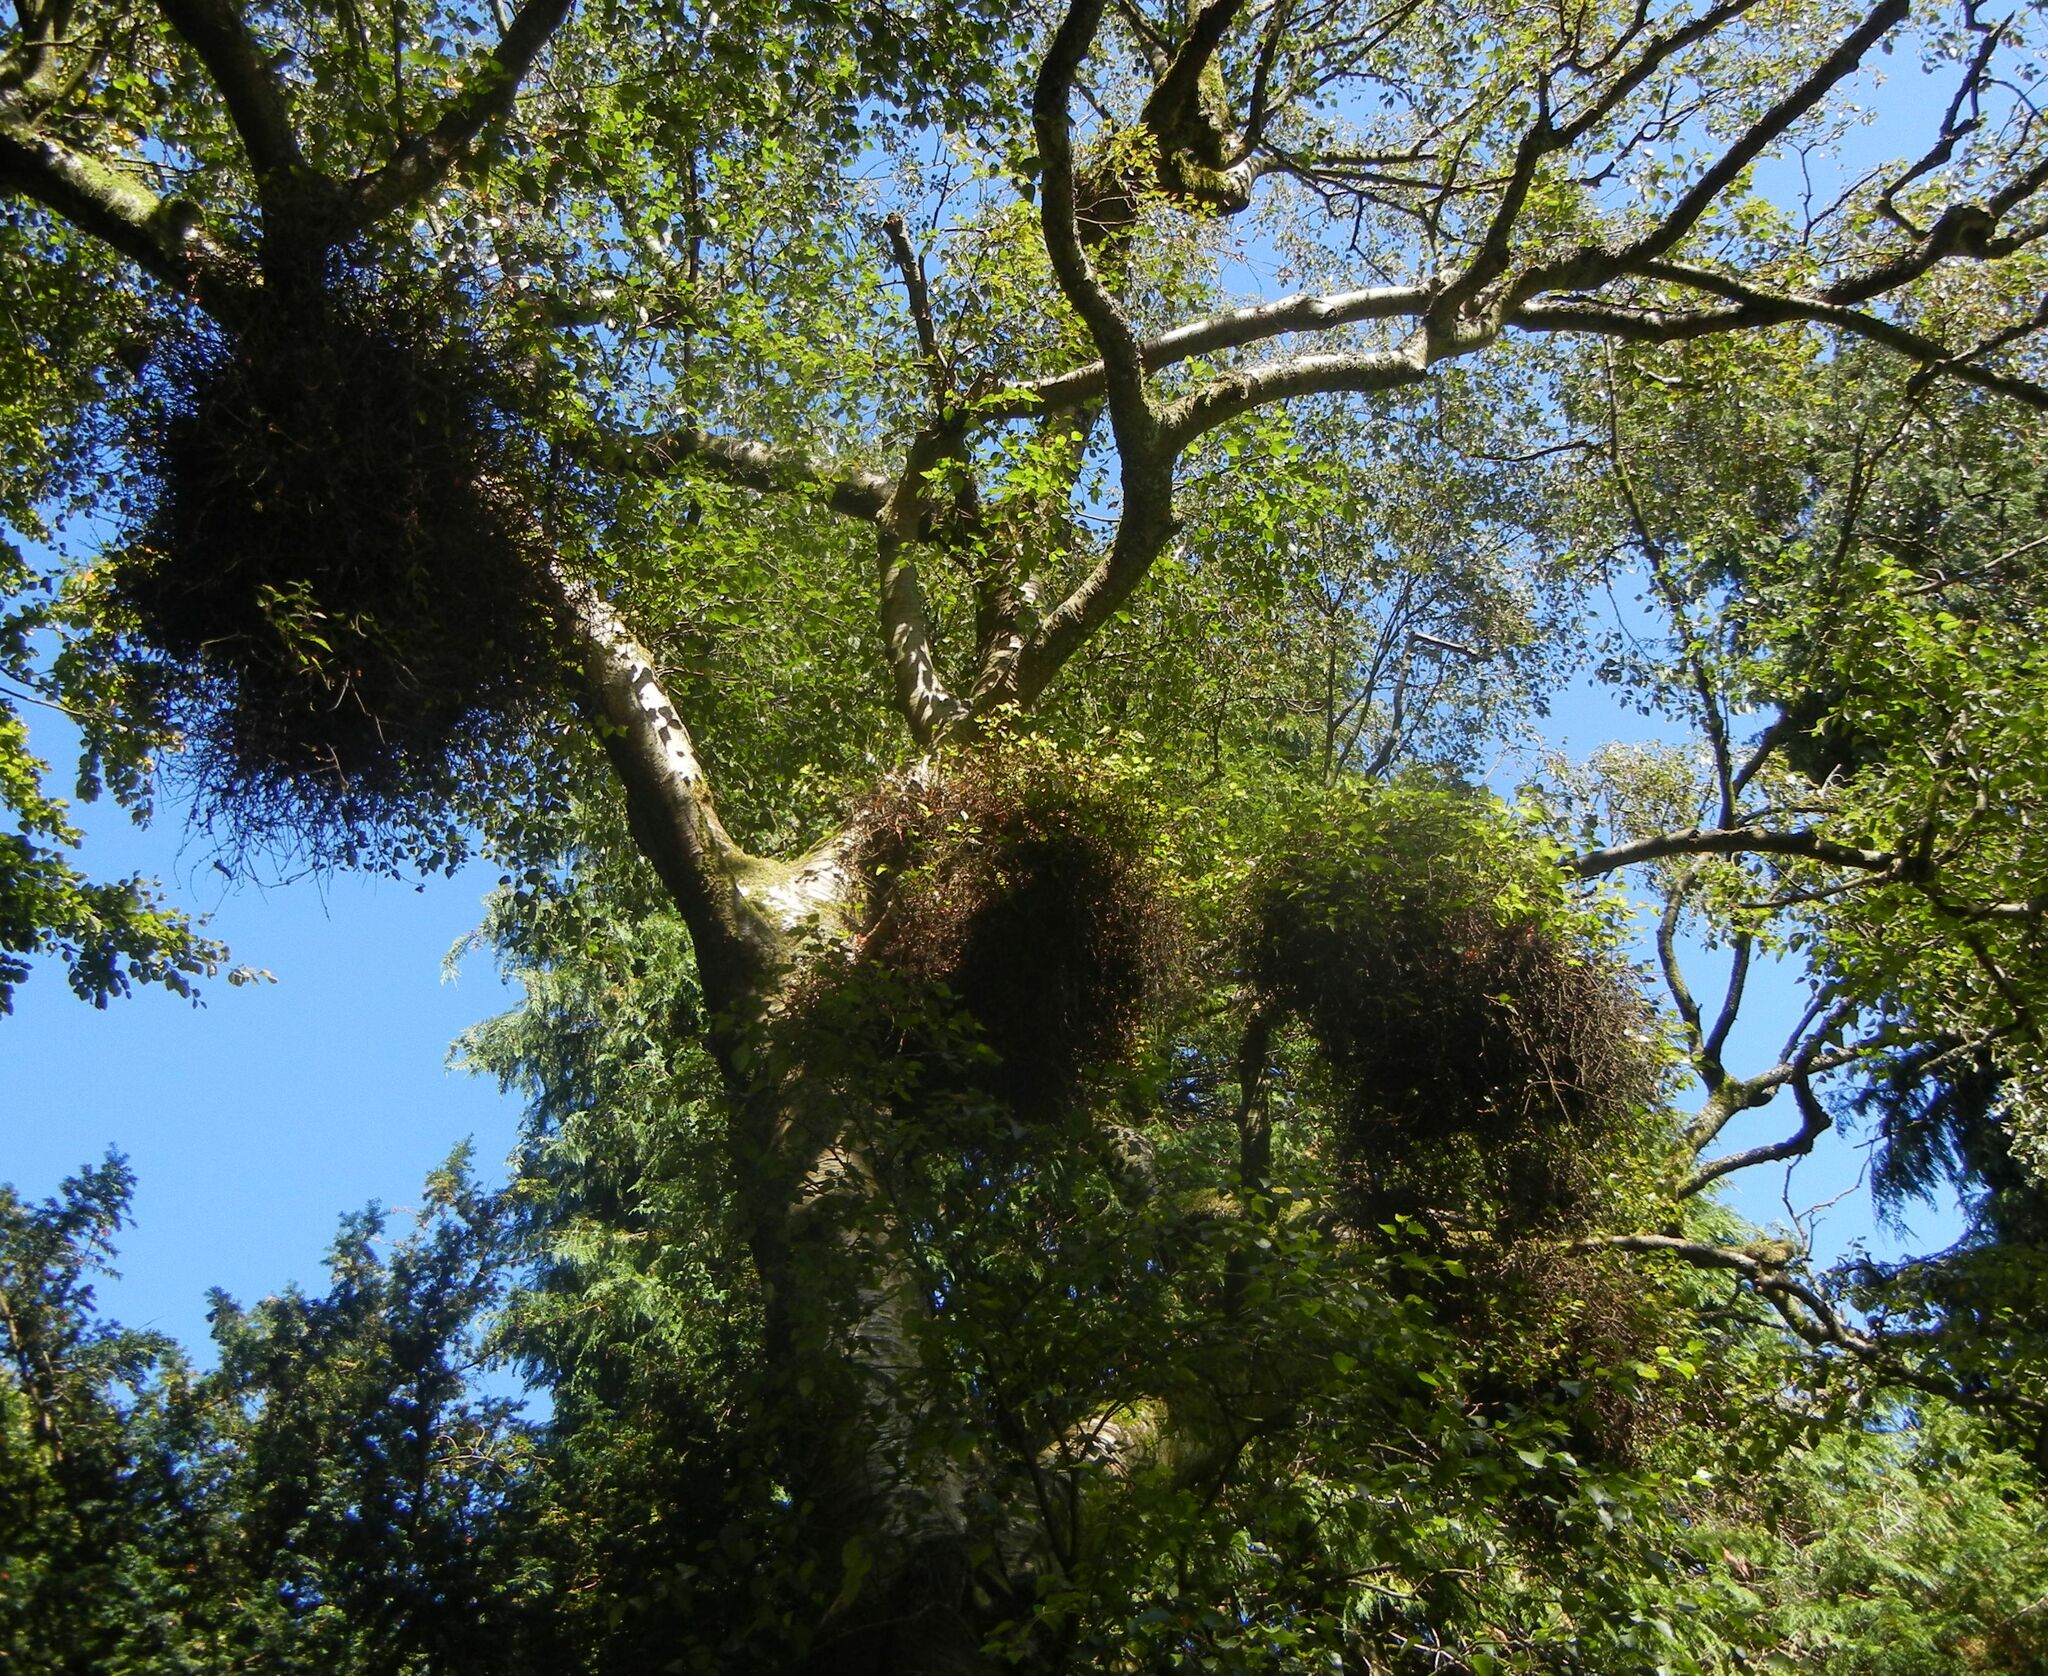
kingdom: Fungi
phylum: Ascomycota
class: Taphrinomycetes
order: Taphrinales
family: Taphrinaceae
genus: Taphrina
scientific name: Taphrina betulina
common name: Birch besom
